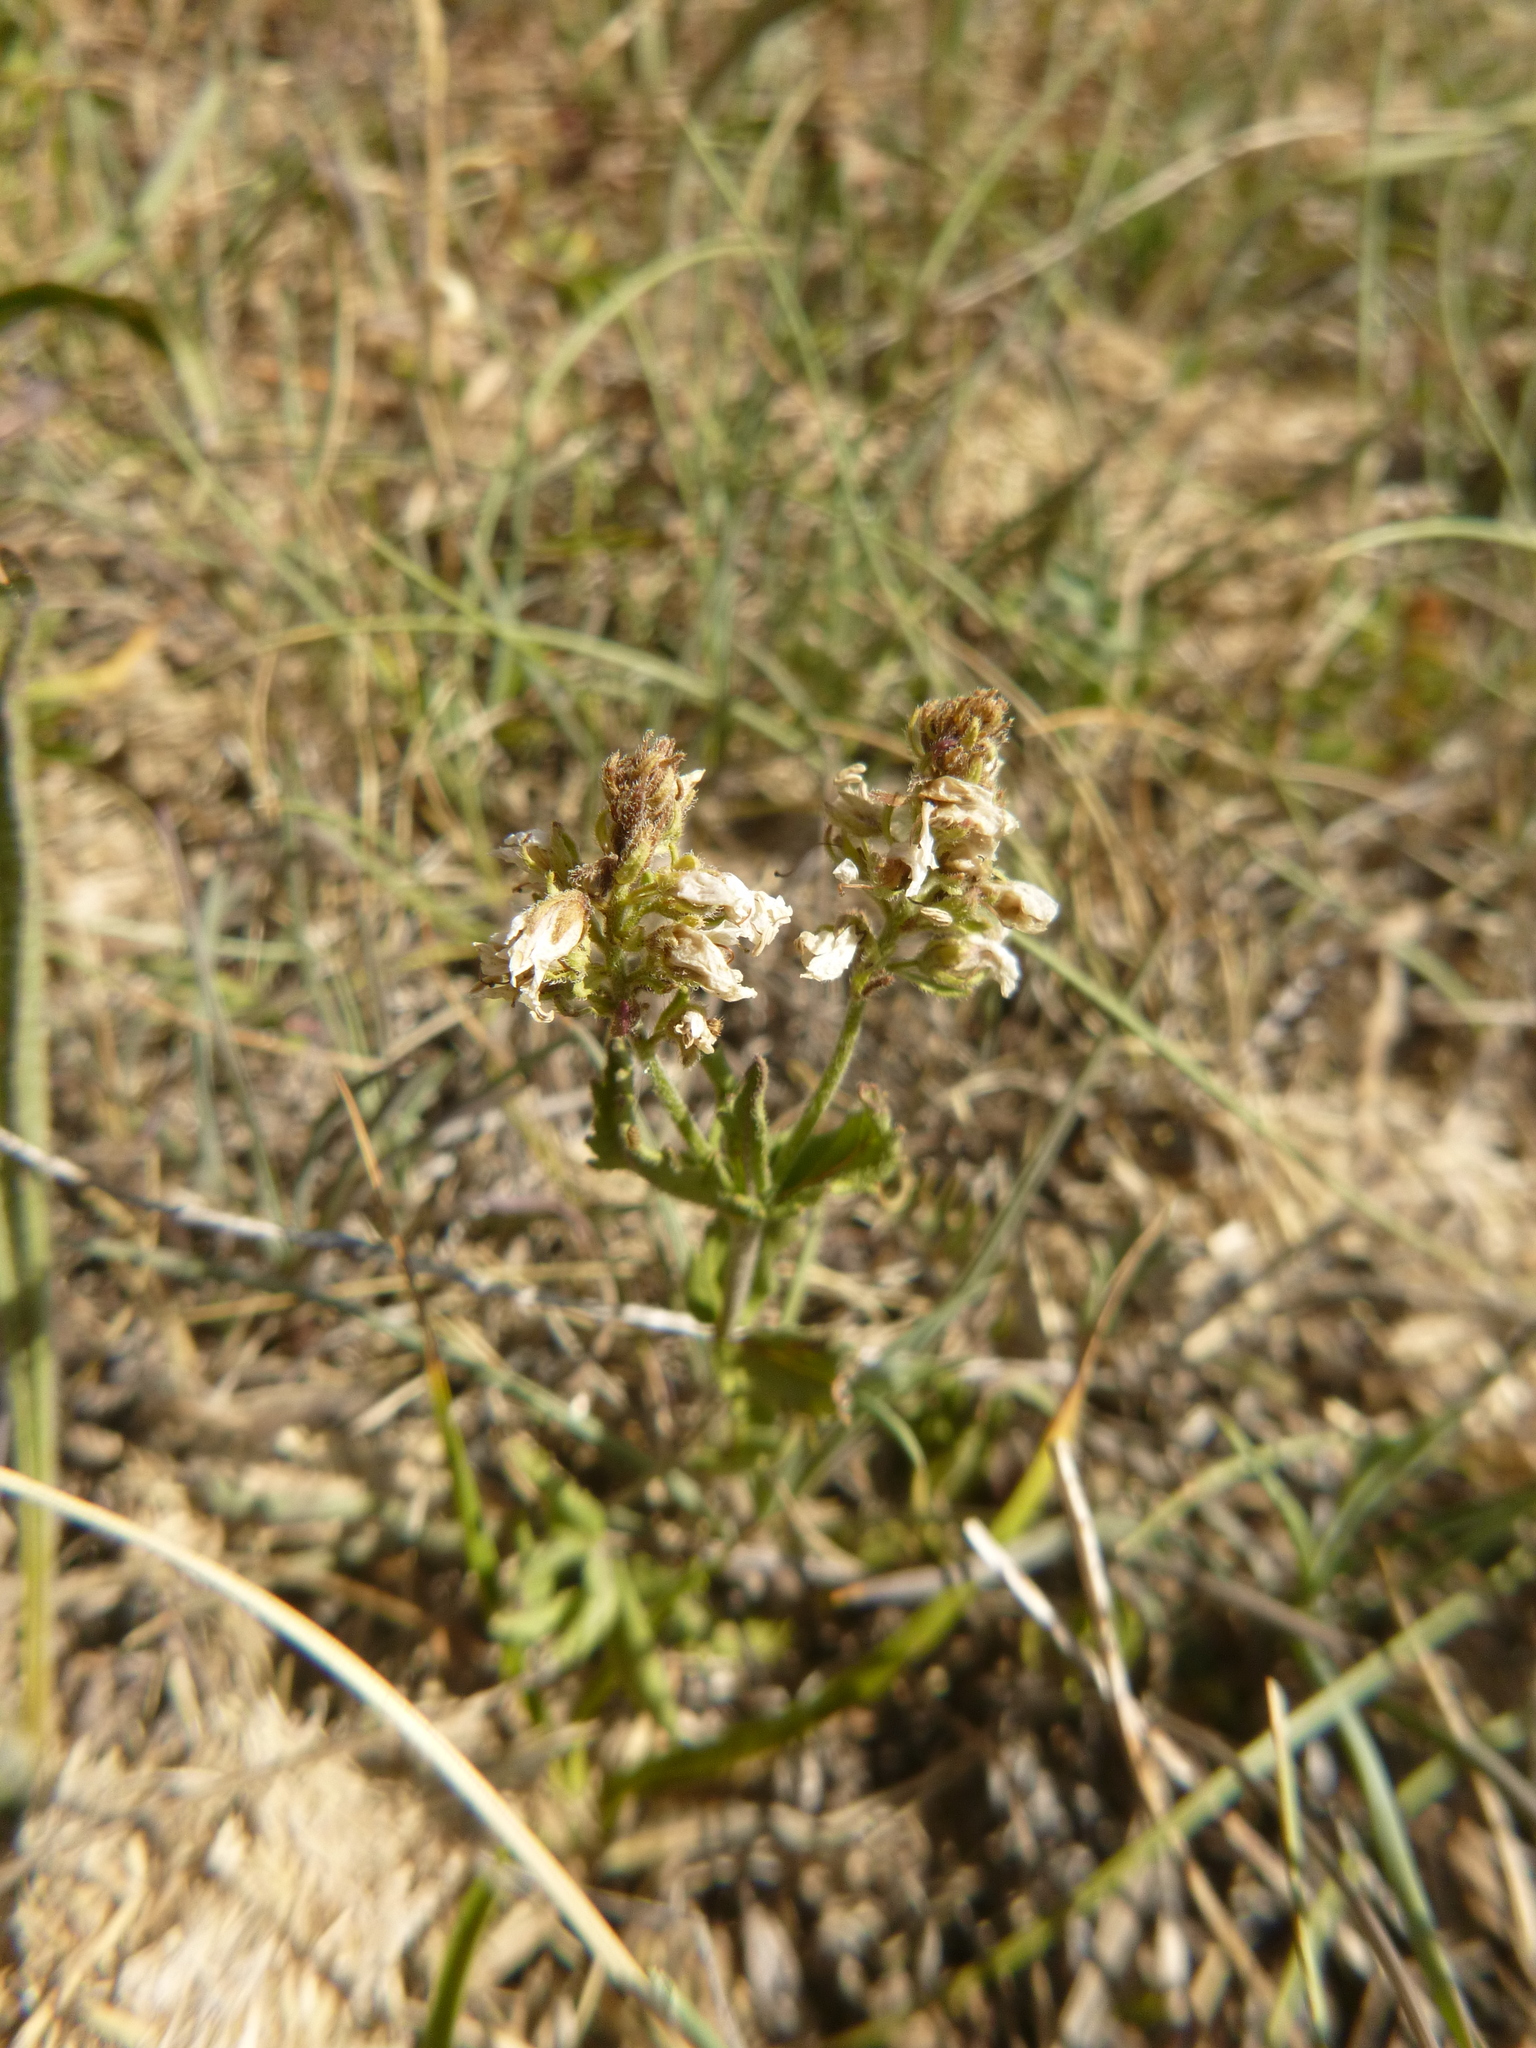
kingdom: Plantae
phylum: Tracheophyta
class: Magnoliopsida
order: Lamiales
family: Plantaginaceae
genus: Veronica
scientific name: Veronica orsiniana
